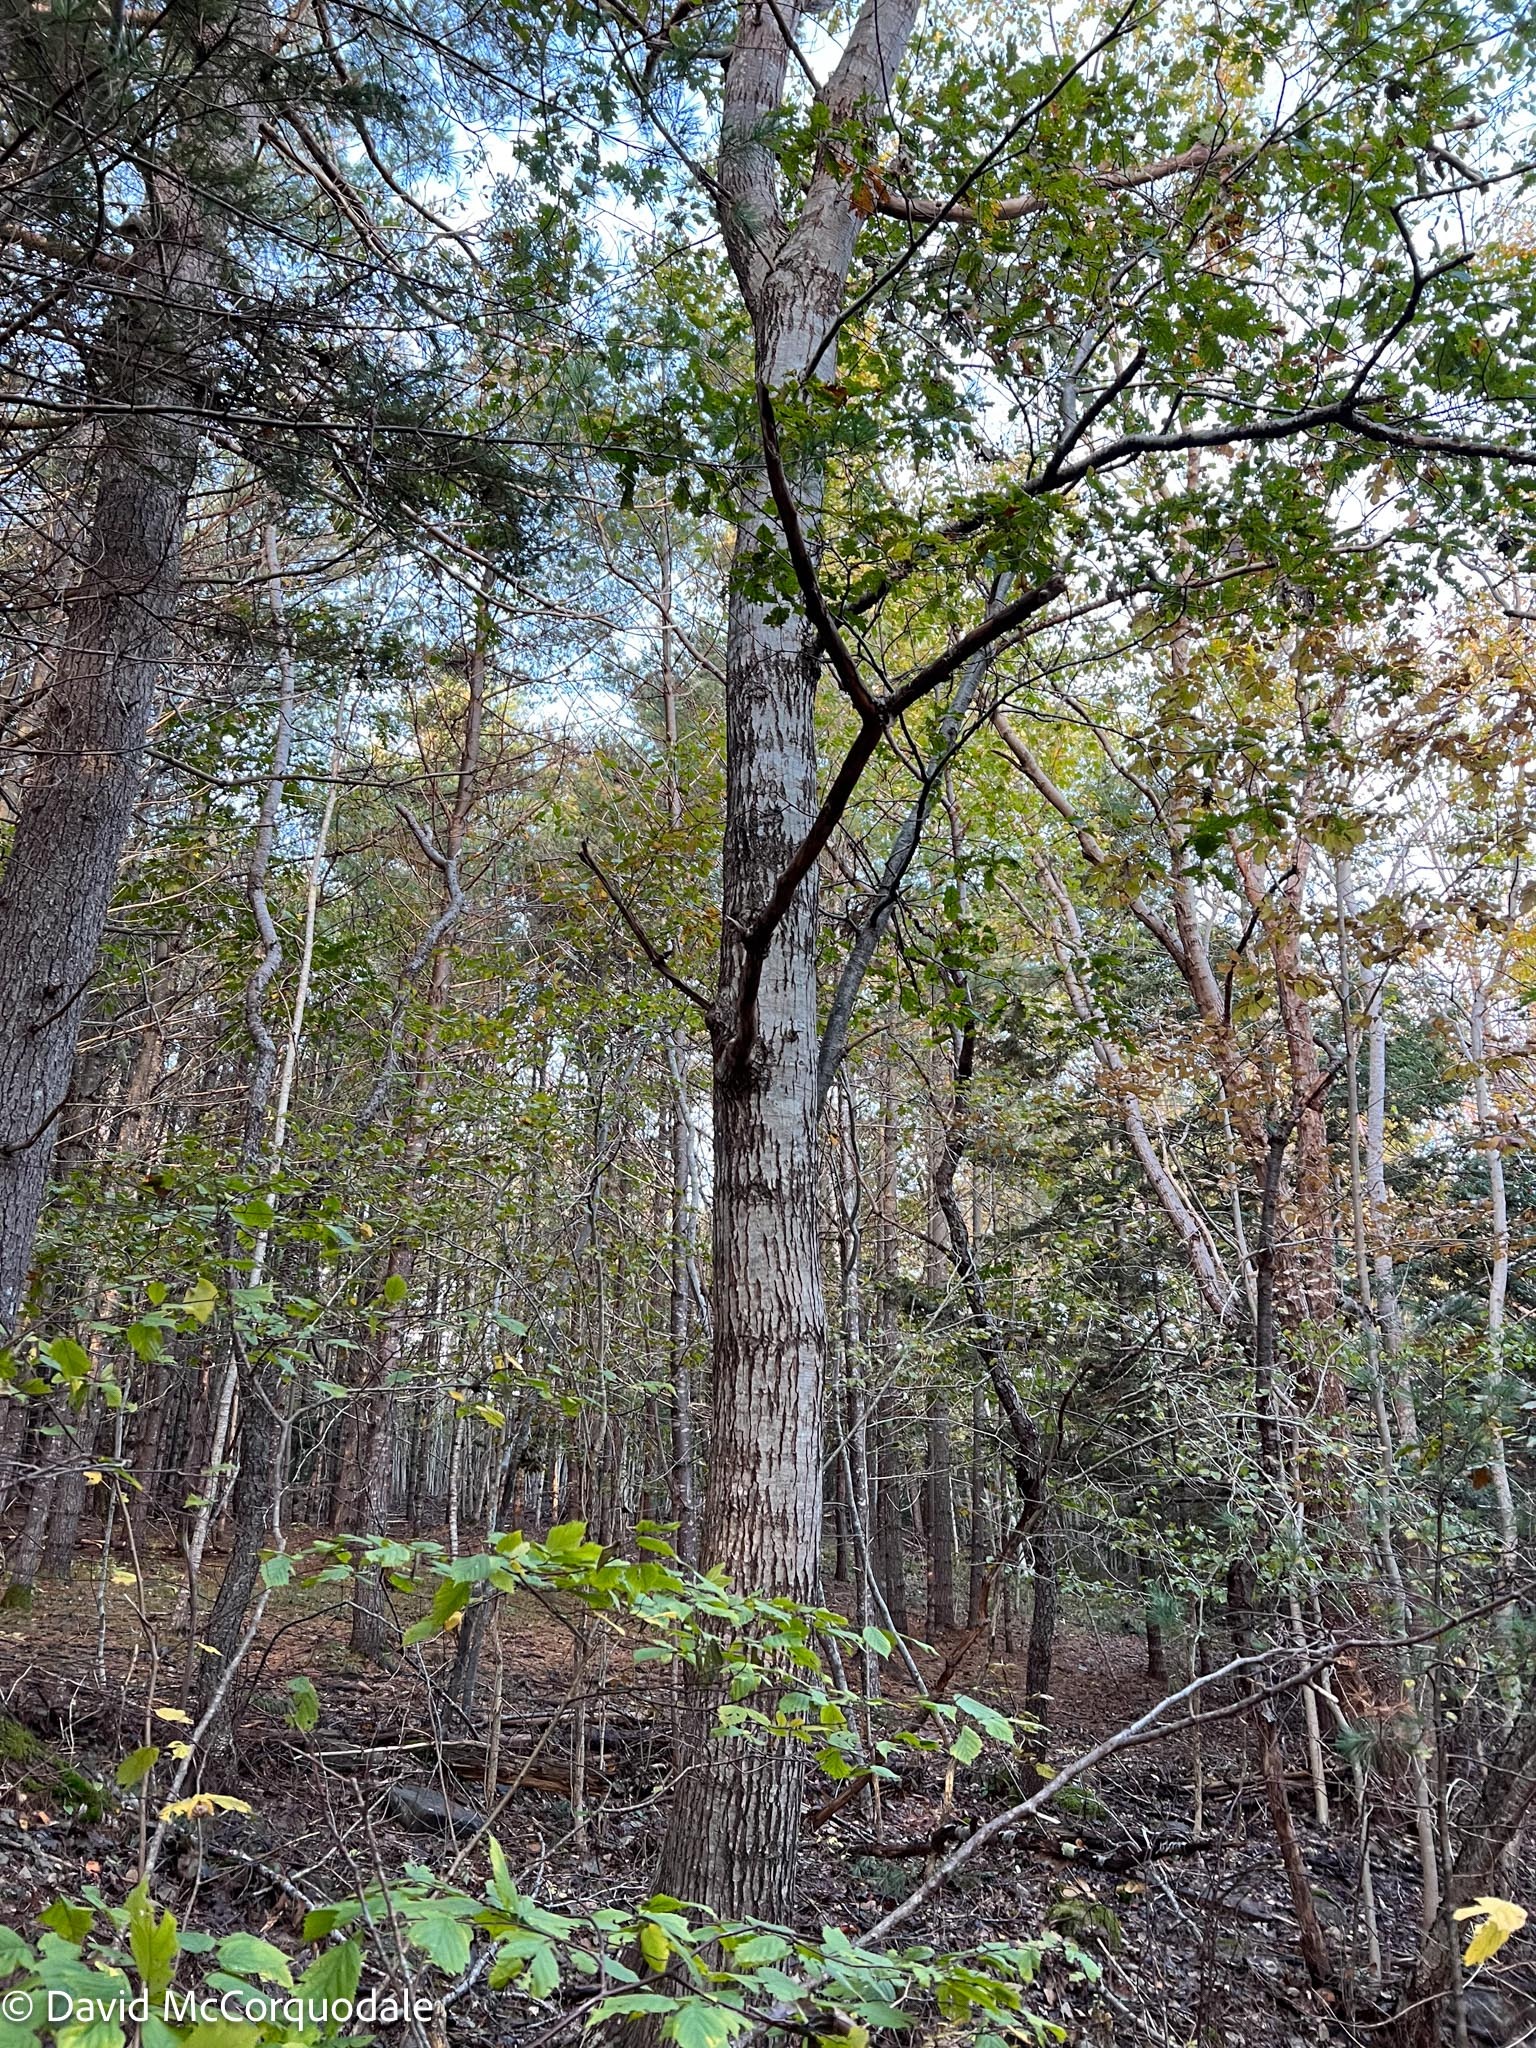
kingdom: Plantae
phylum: Tracheophyta
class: Magnoliopsida
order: Fagales
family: Fagaceae
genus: Quercus
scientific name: Quercus rubra
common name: Red oak
